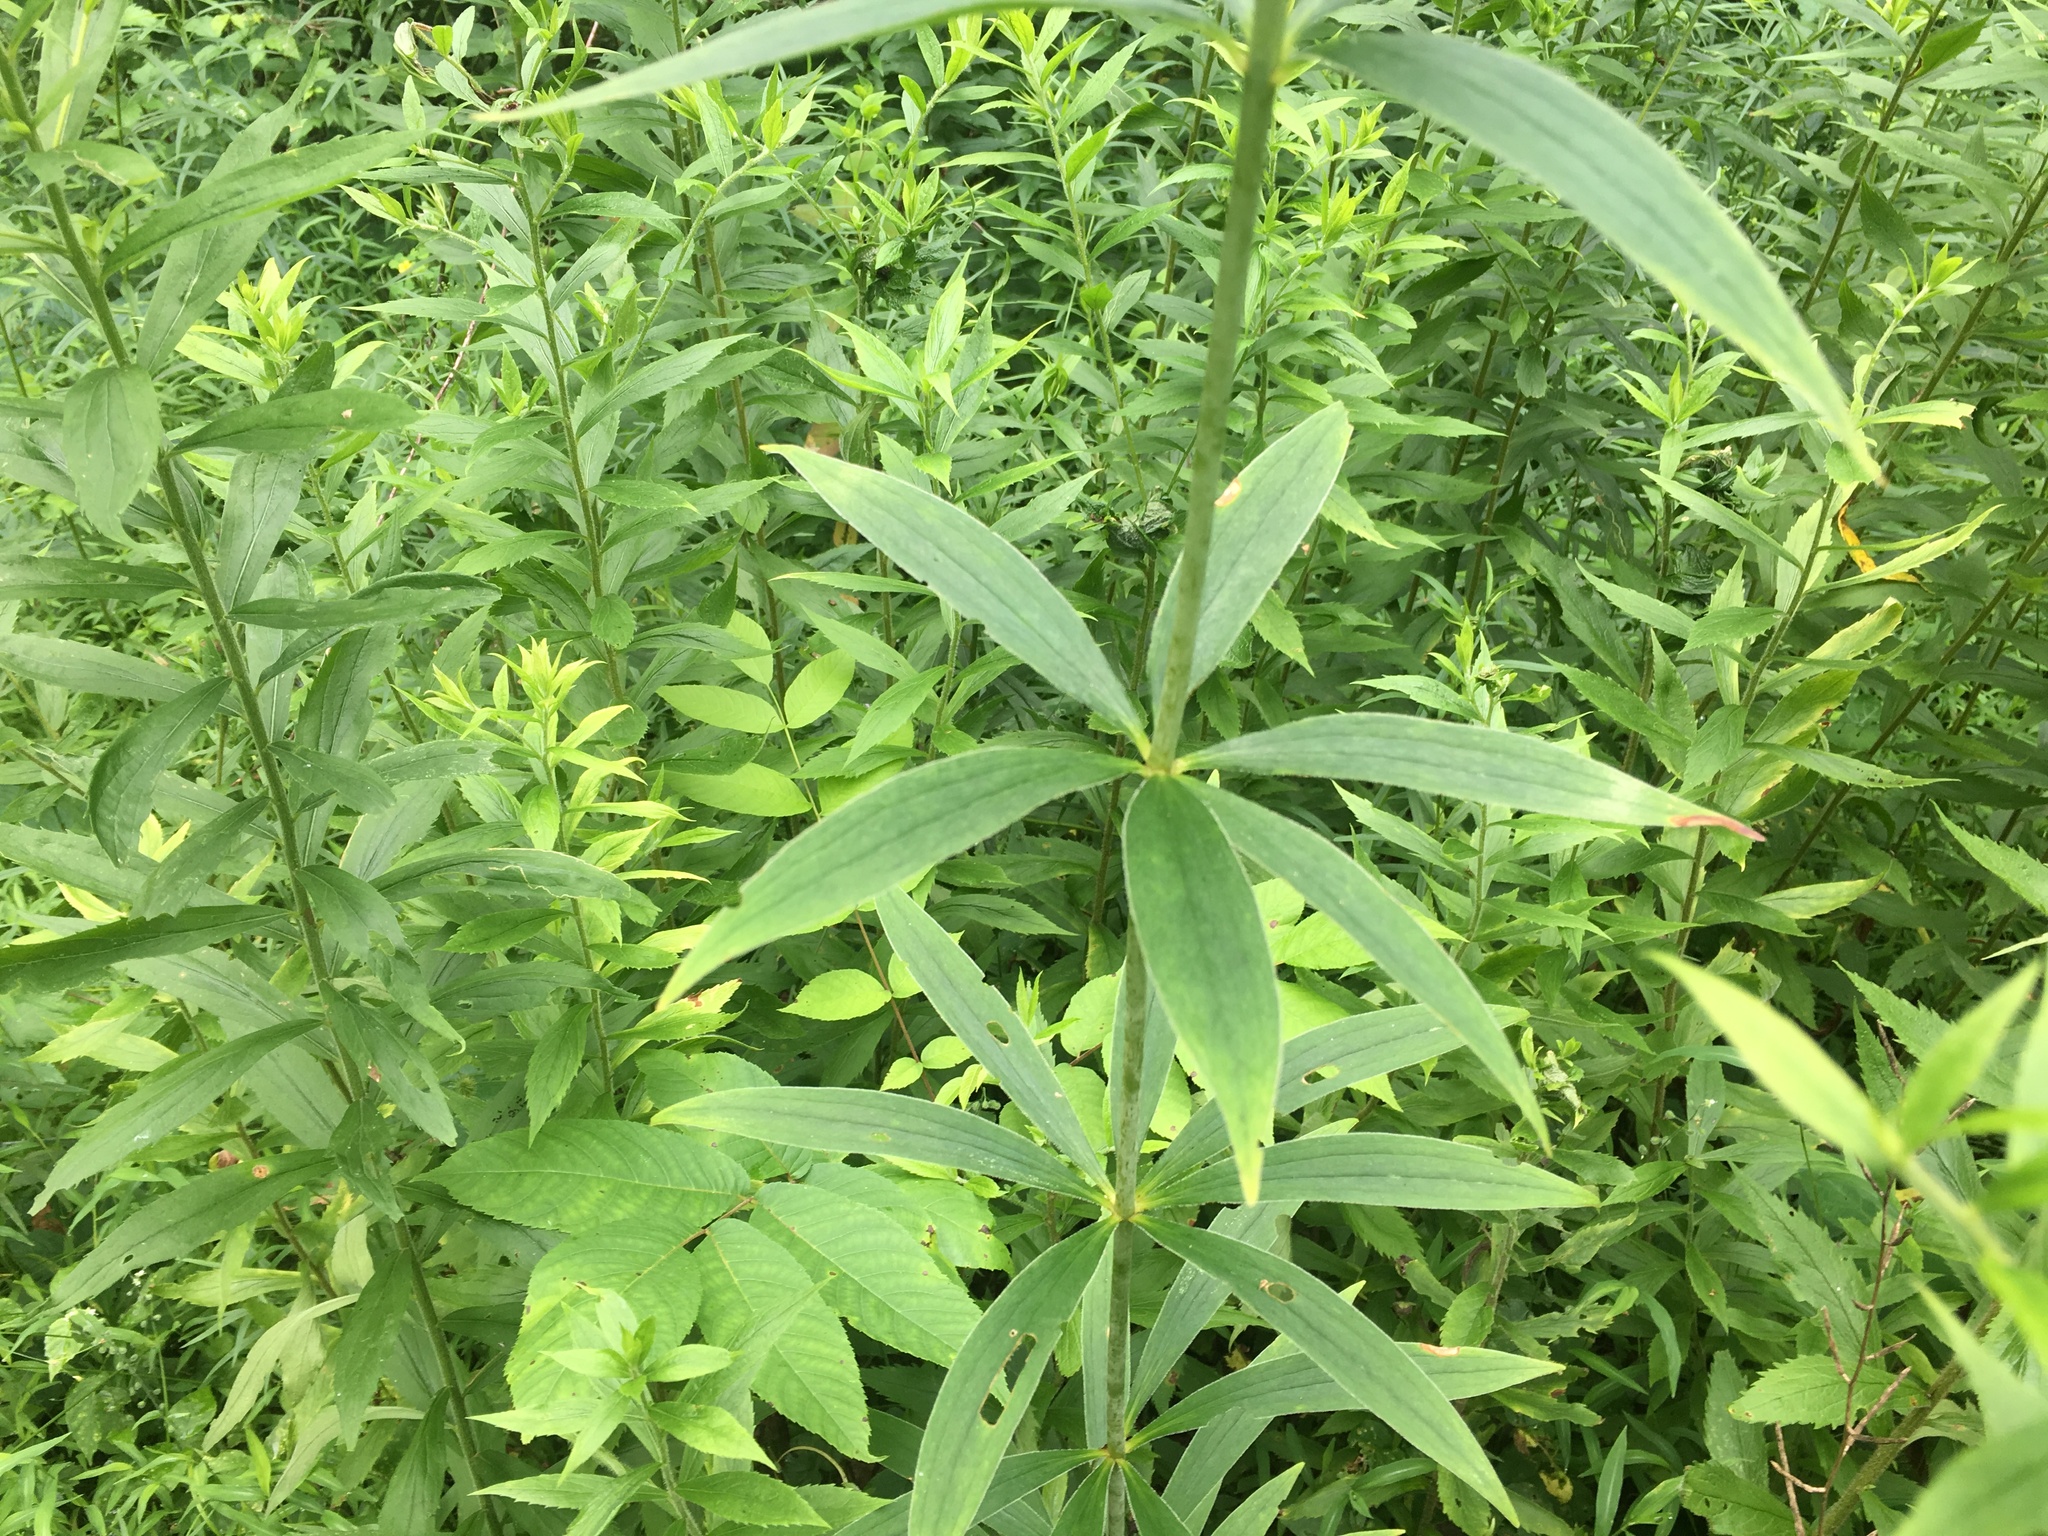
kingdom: Plantae
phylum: Tracheophyta
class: Liliopsida
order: Liliales
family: Liliaceae
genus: Lilium
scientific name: Lilium canadense
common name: Canada lily
